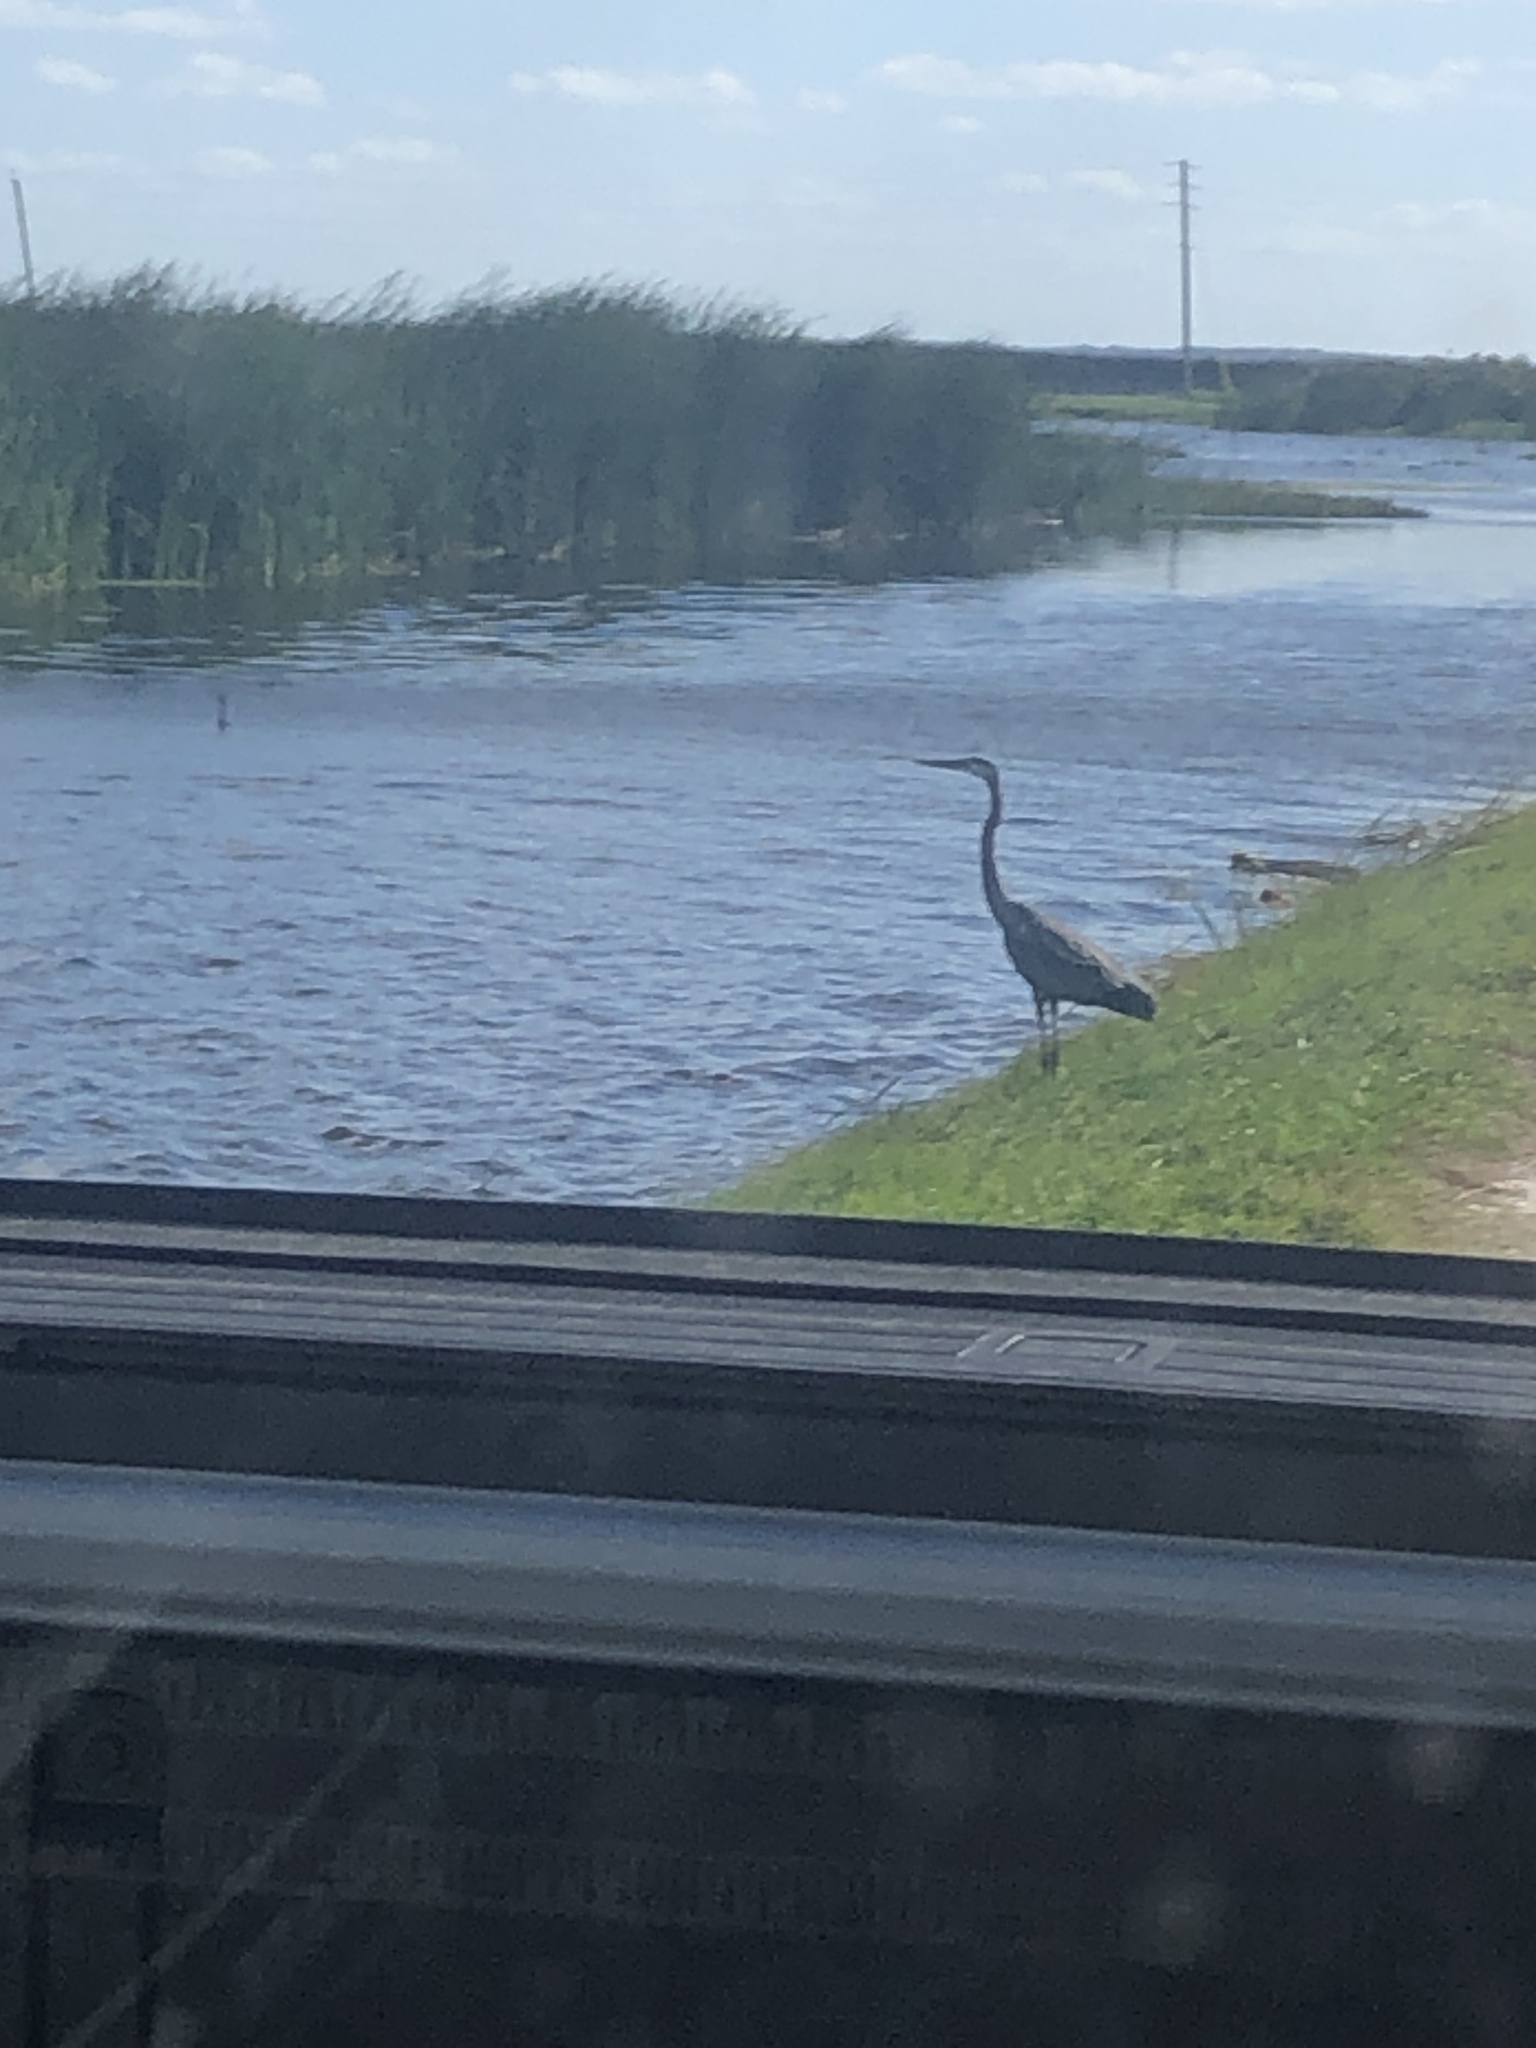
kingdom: Animalia
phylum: Chordata
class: Aves
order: Pelecaniformes
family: Ardeidae
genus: Ardea
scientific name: Ardea herodias
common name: Great blue heron
